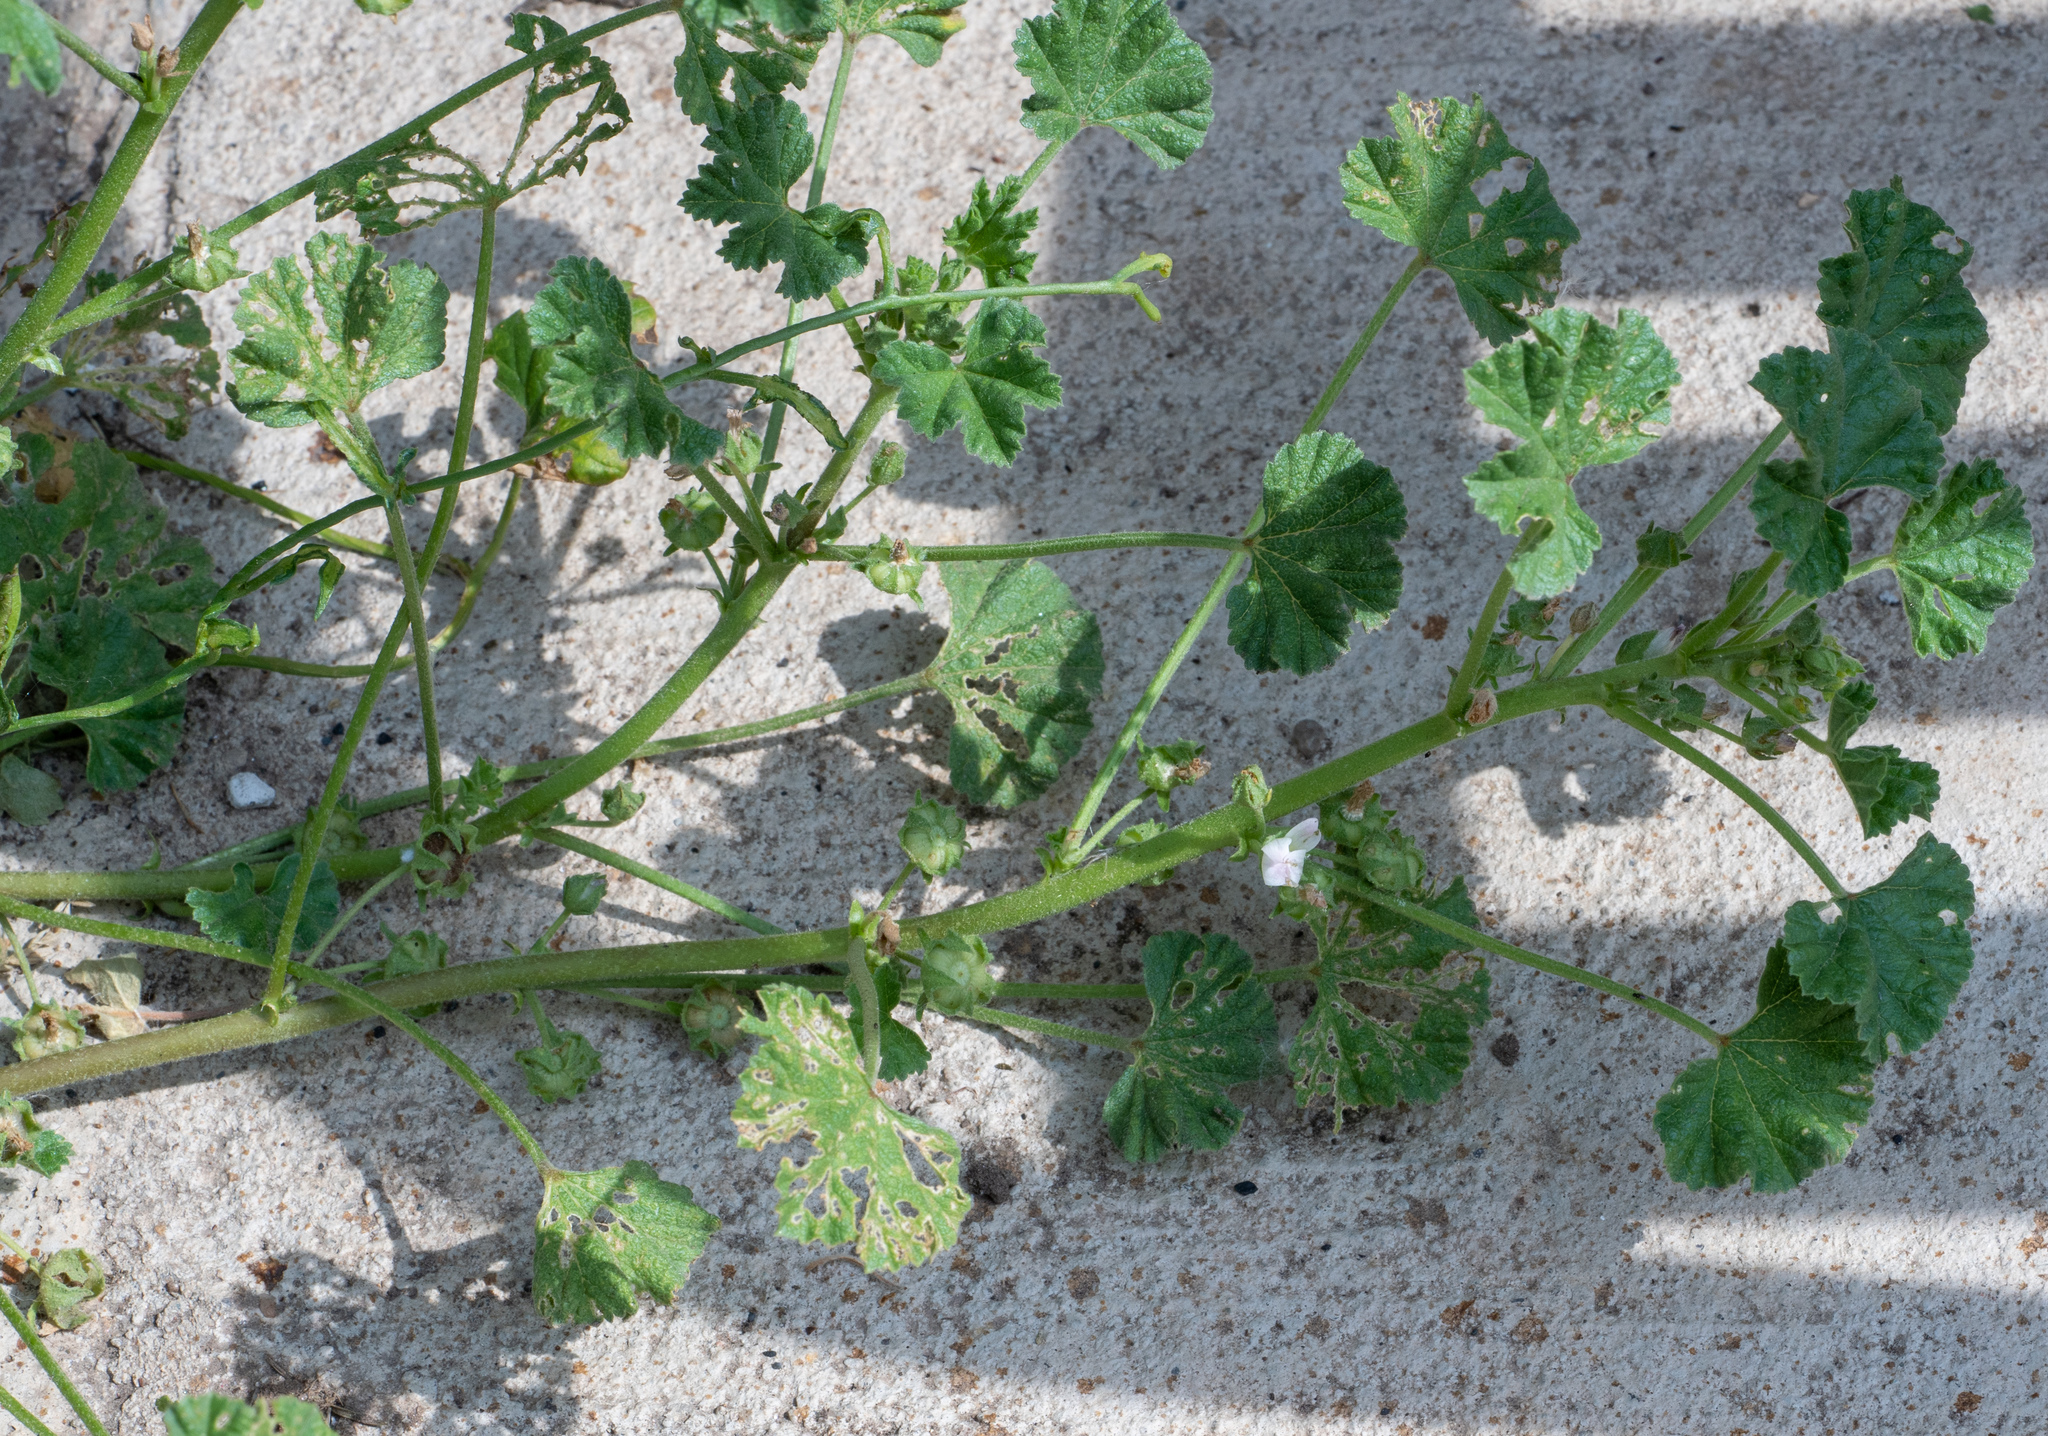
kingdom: Plantae
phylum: Tracheophyta
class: Magnoliopsida
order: Malvales
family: Malvaceae
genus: Malva
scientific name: Malva neglecta
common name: Common mallow
